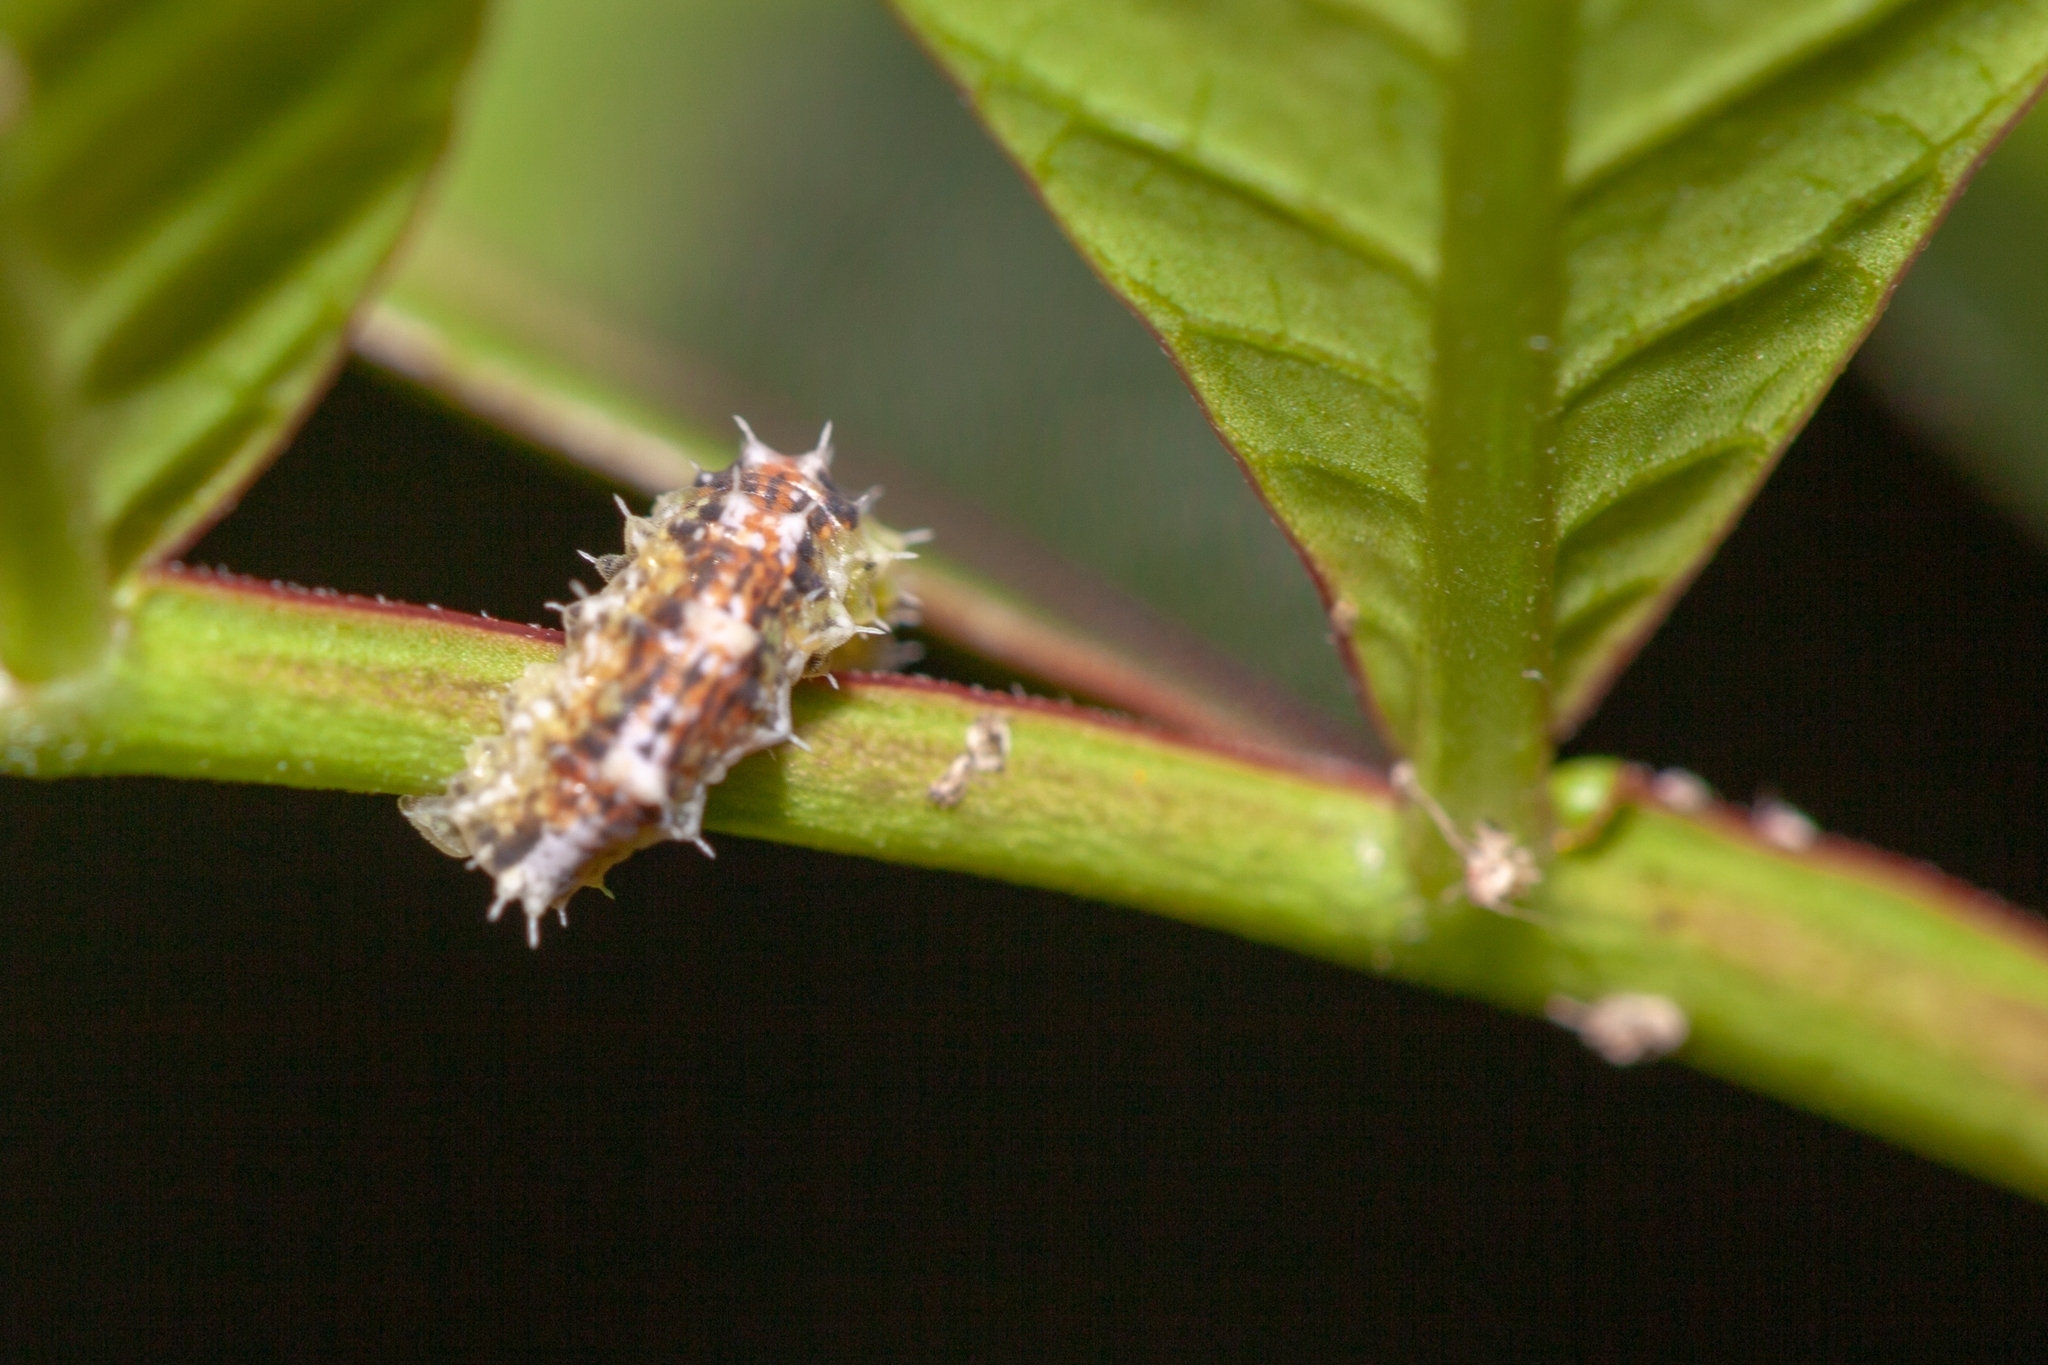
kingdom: Animalia
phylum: Arthropoda
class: Insecta
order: Diptera
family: Syrphidae
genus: Dioprosopa
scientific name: Dioprosopa clavatus
